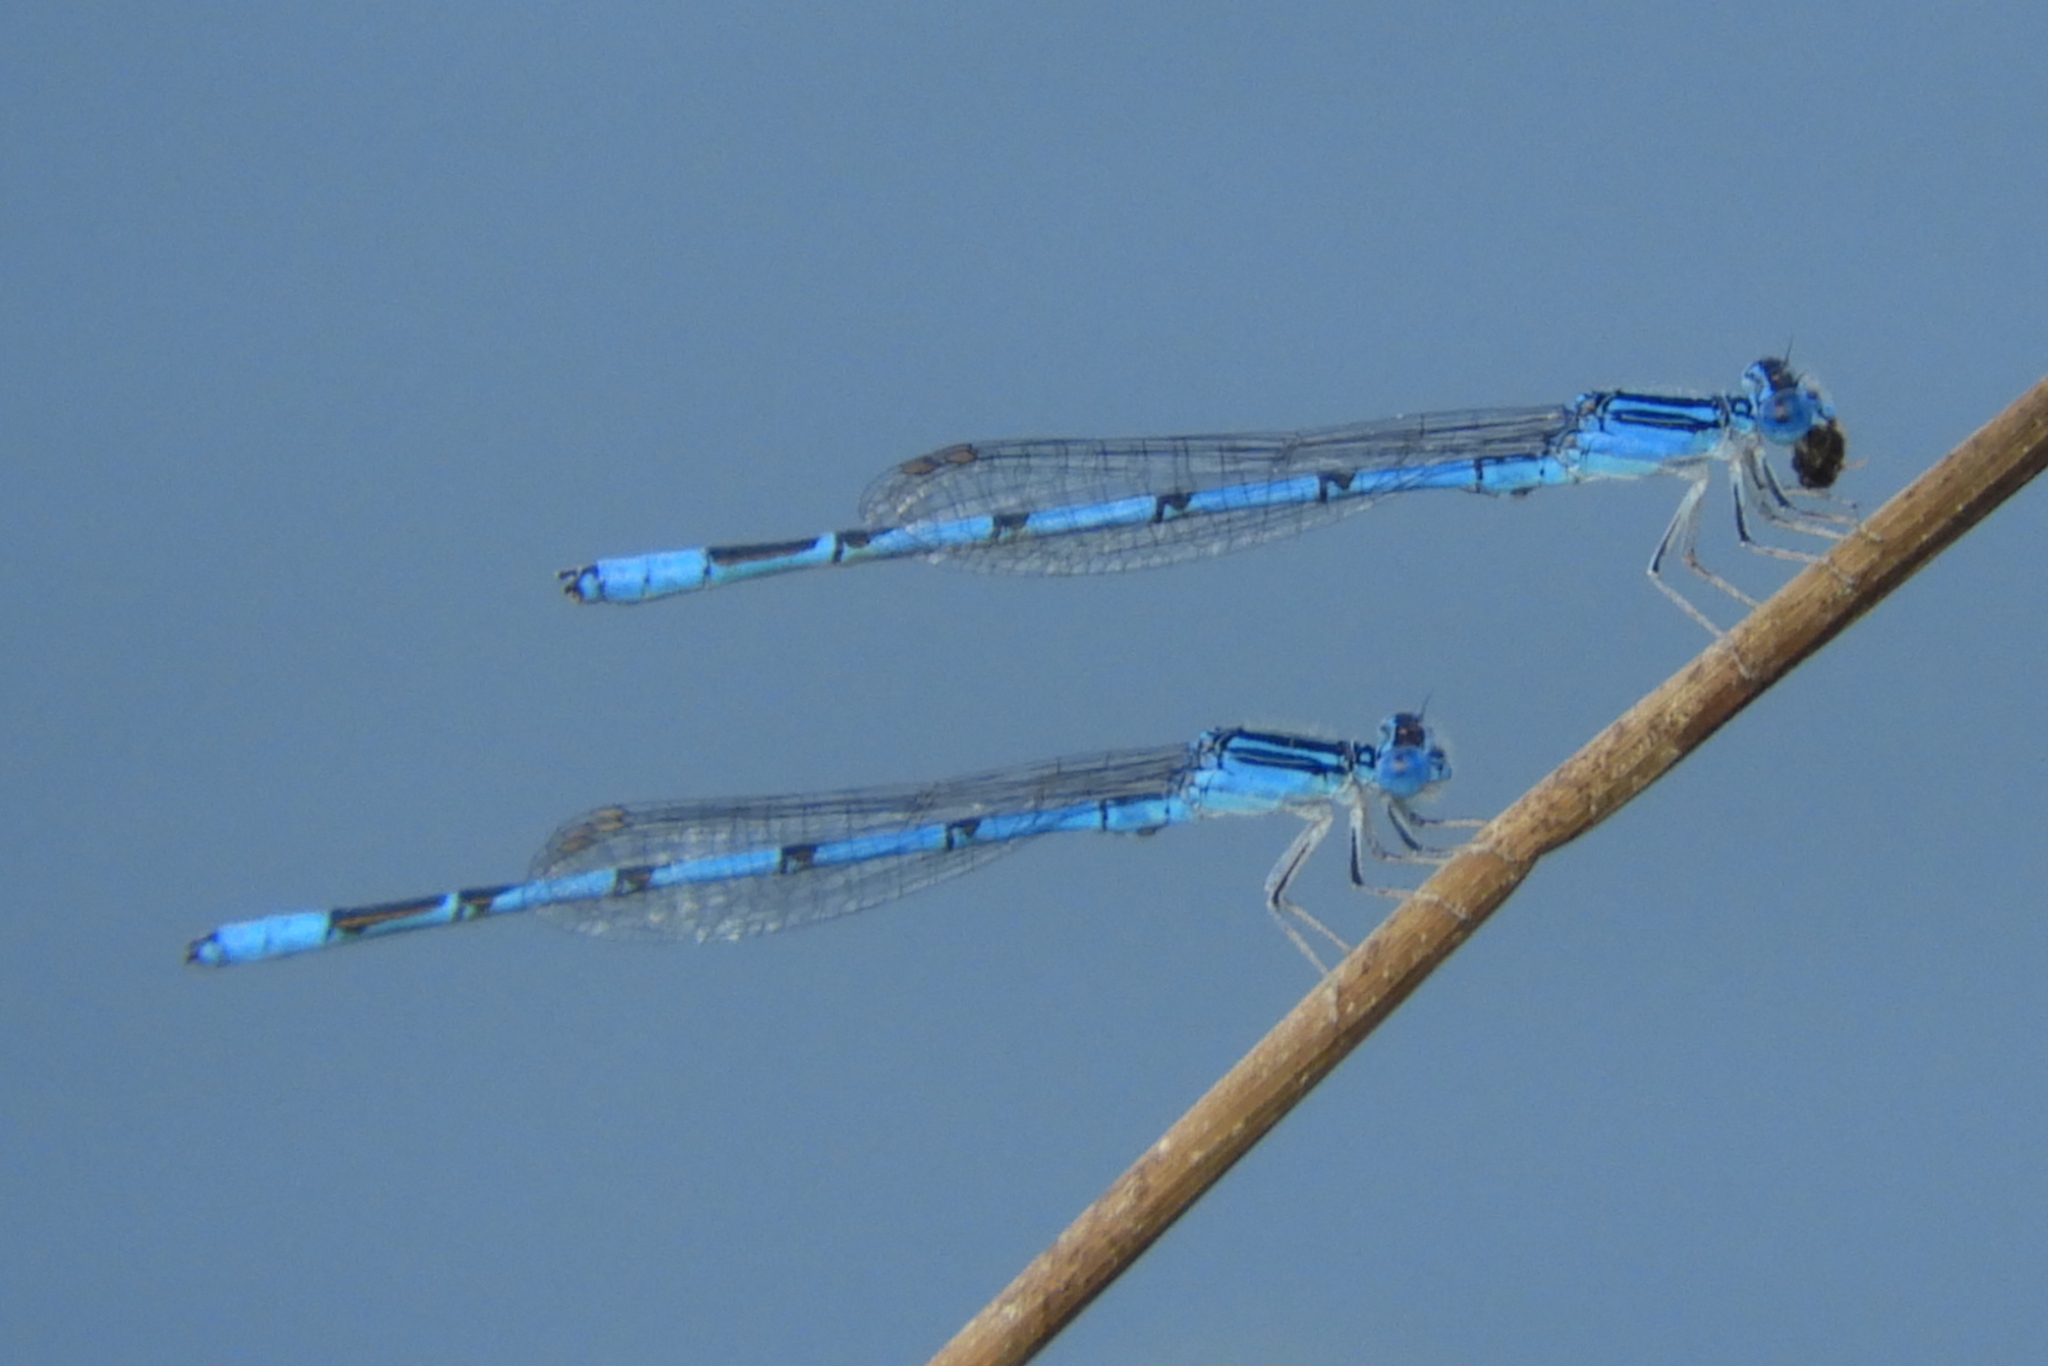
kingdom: Animalia
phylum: Arthropoda
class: Insecta
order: Odonata
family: Coenagrionidae
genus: Enallagma
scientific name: Enallagma basidens
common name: Double-striped bluet
